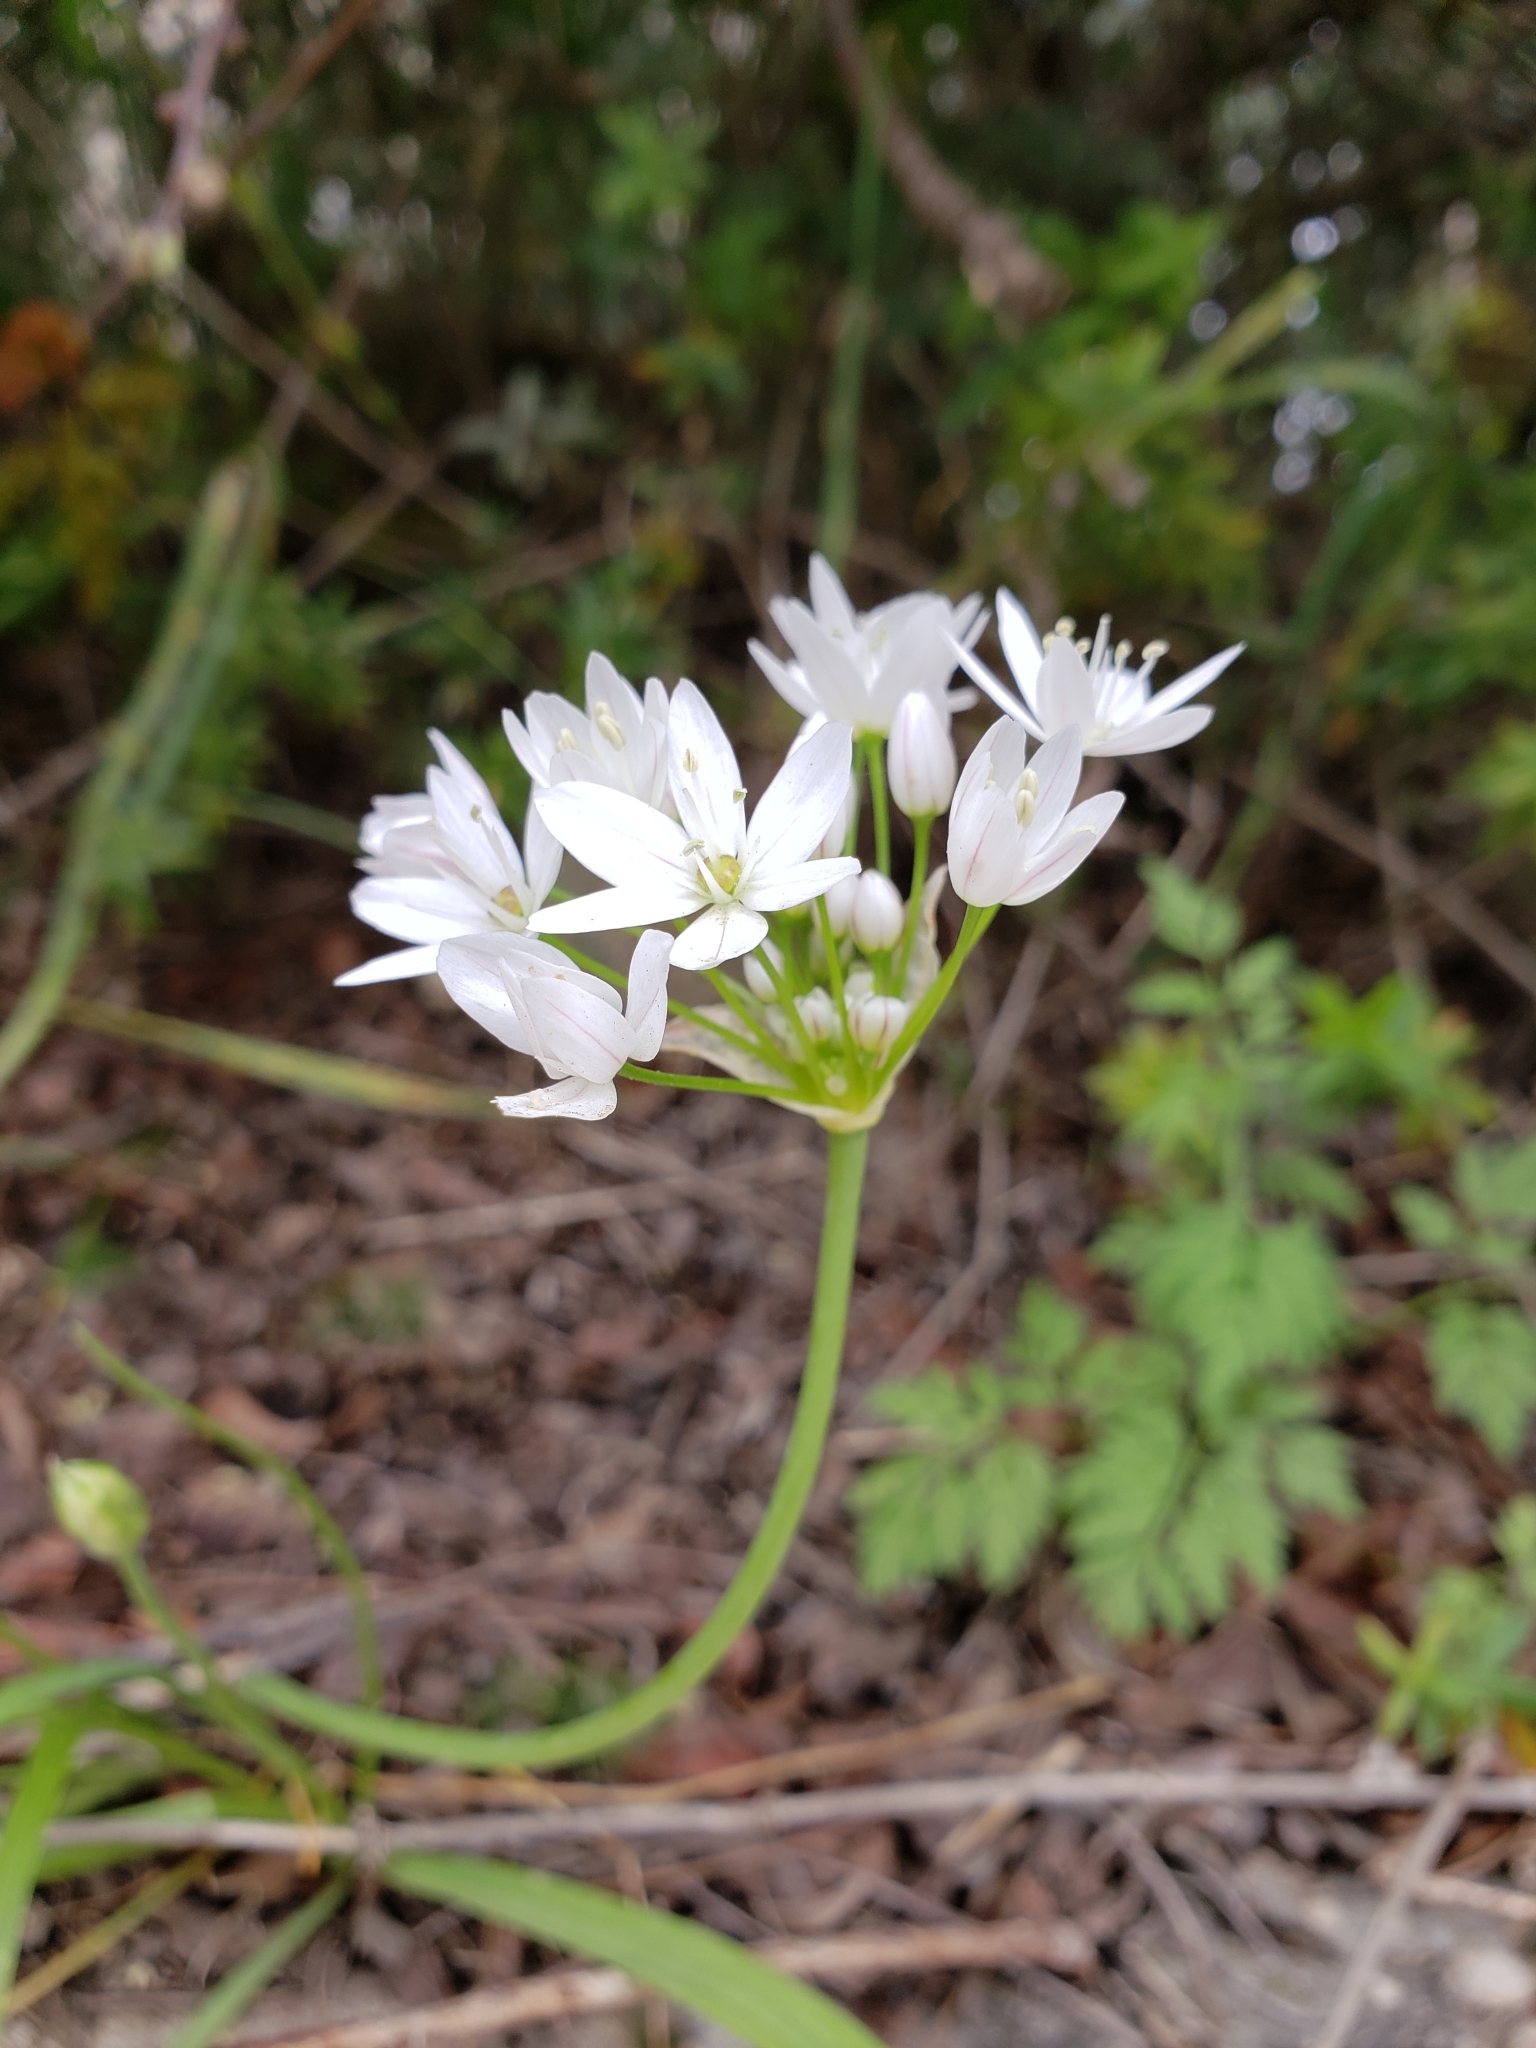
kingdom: Plantae
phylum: Tracheophyta
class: Liliopsida
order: Asparagales
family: Amaryllidaceae
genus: Allium
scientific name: Allium neapolitanum
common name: Neapolitan garlic
